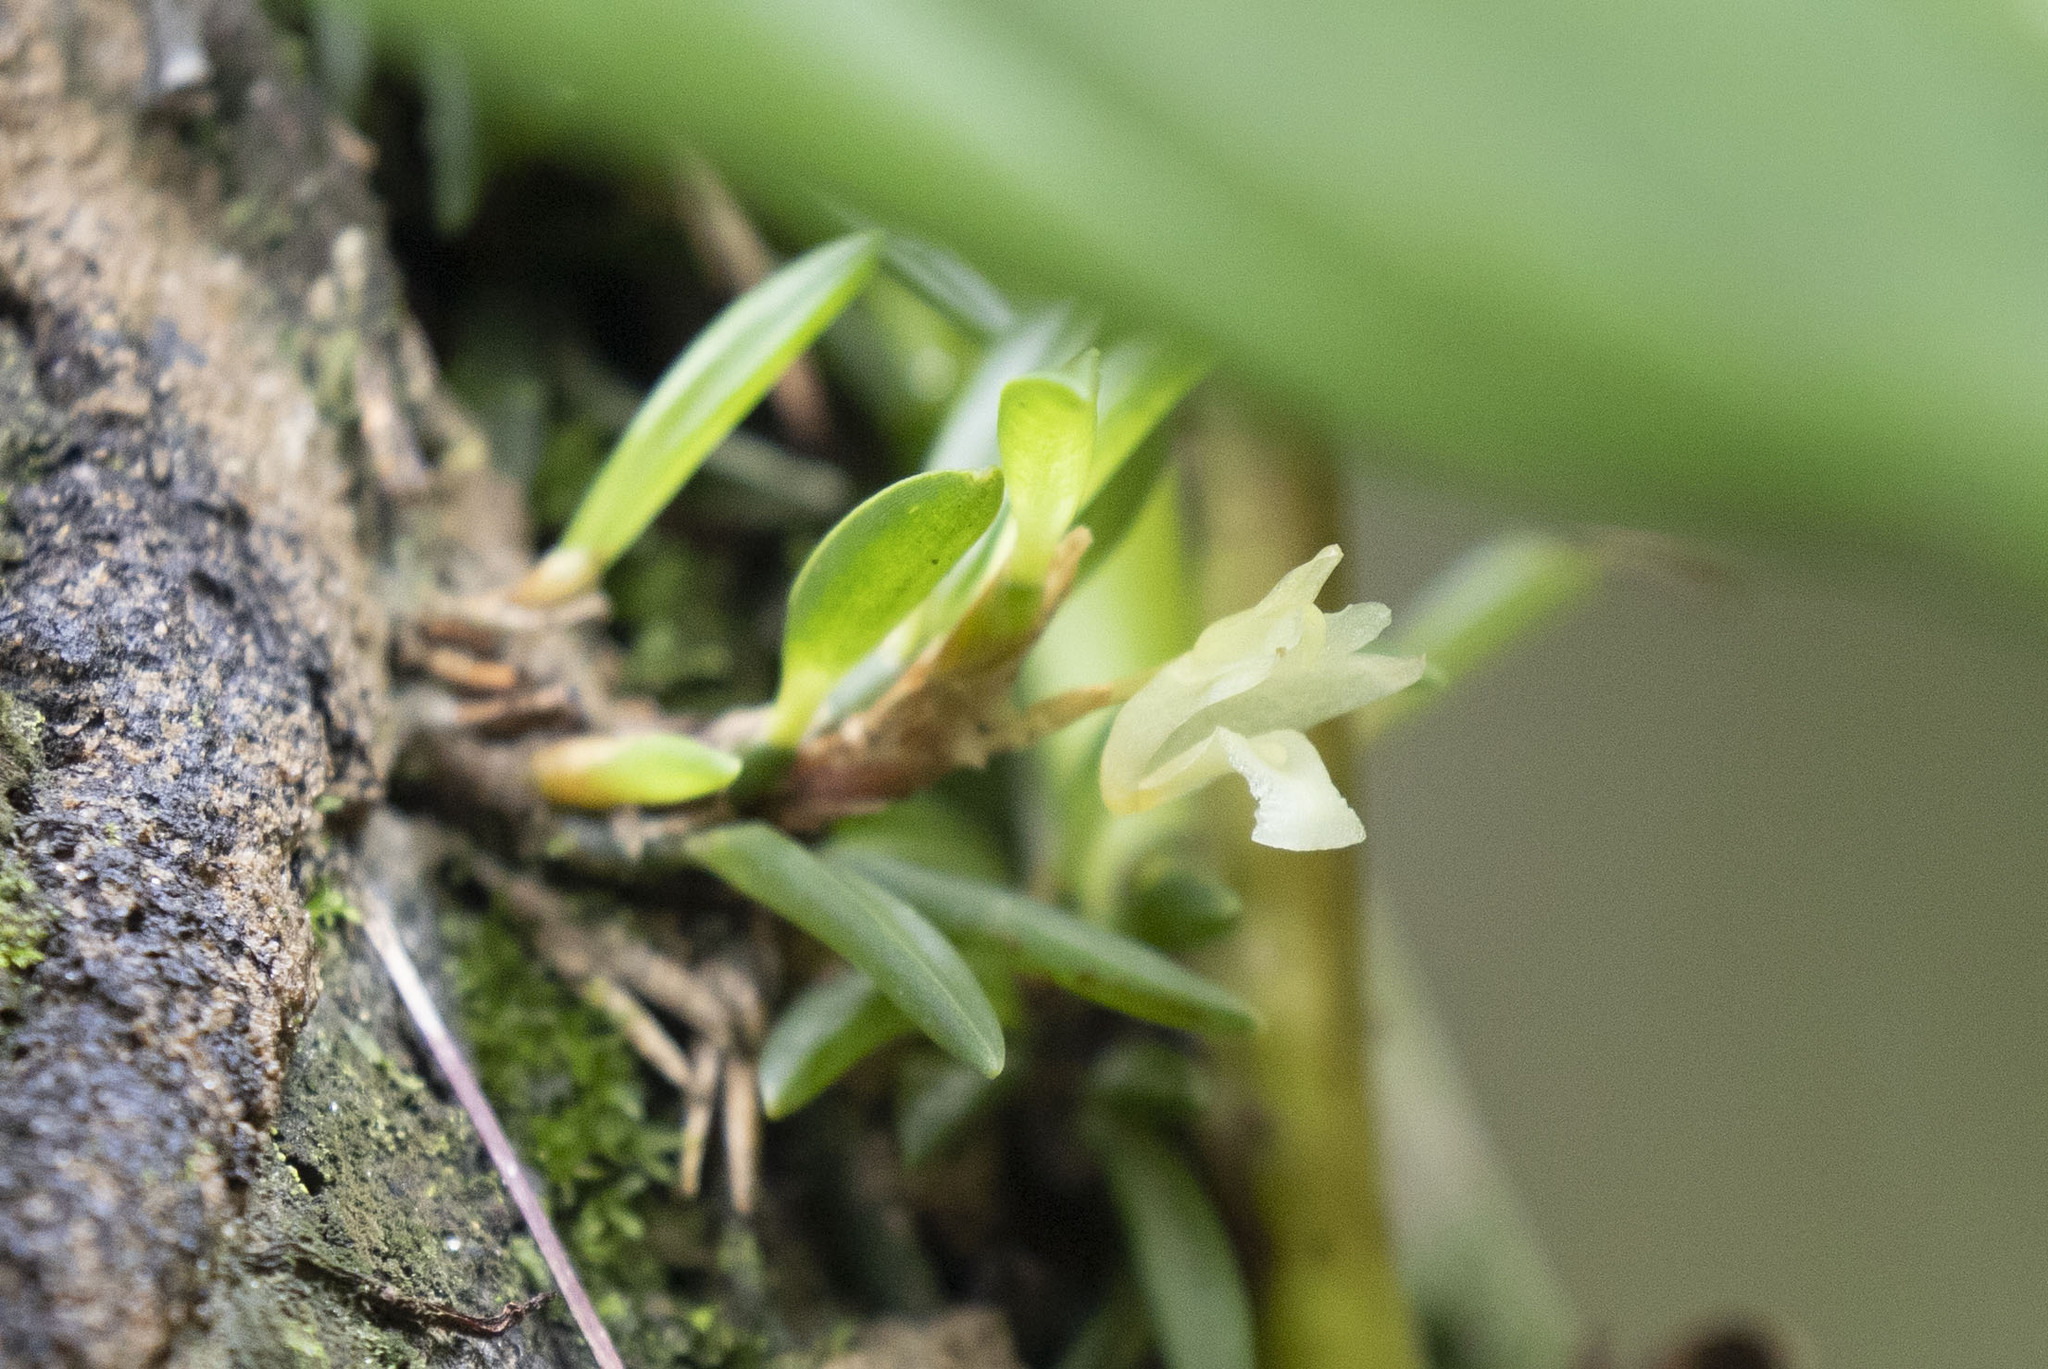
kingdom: Plantae
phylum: Tracheophyta
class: Liliopsida
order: Asparagales
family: Orchidaceae
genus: Maxillaria
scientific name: Maxillaria uncata
